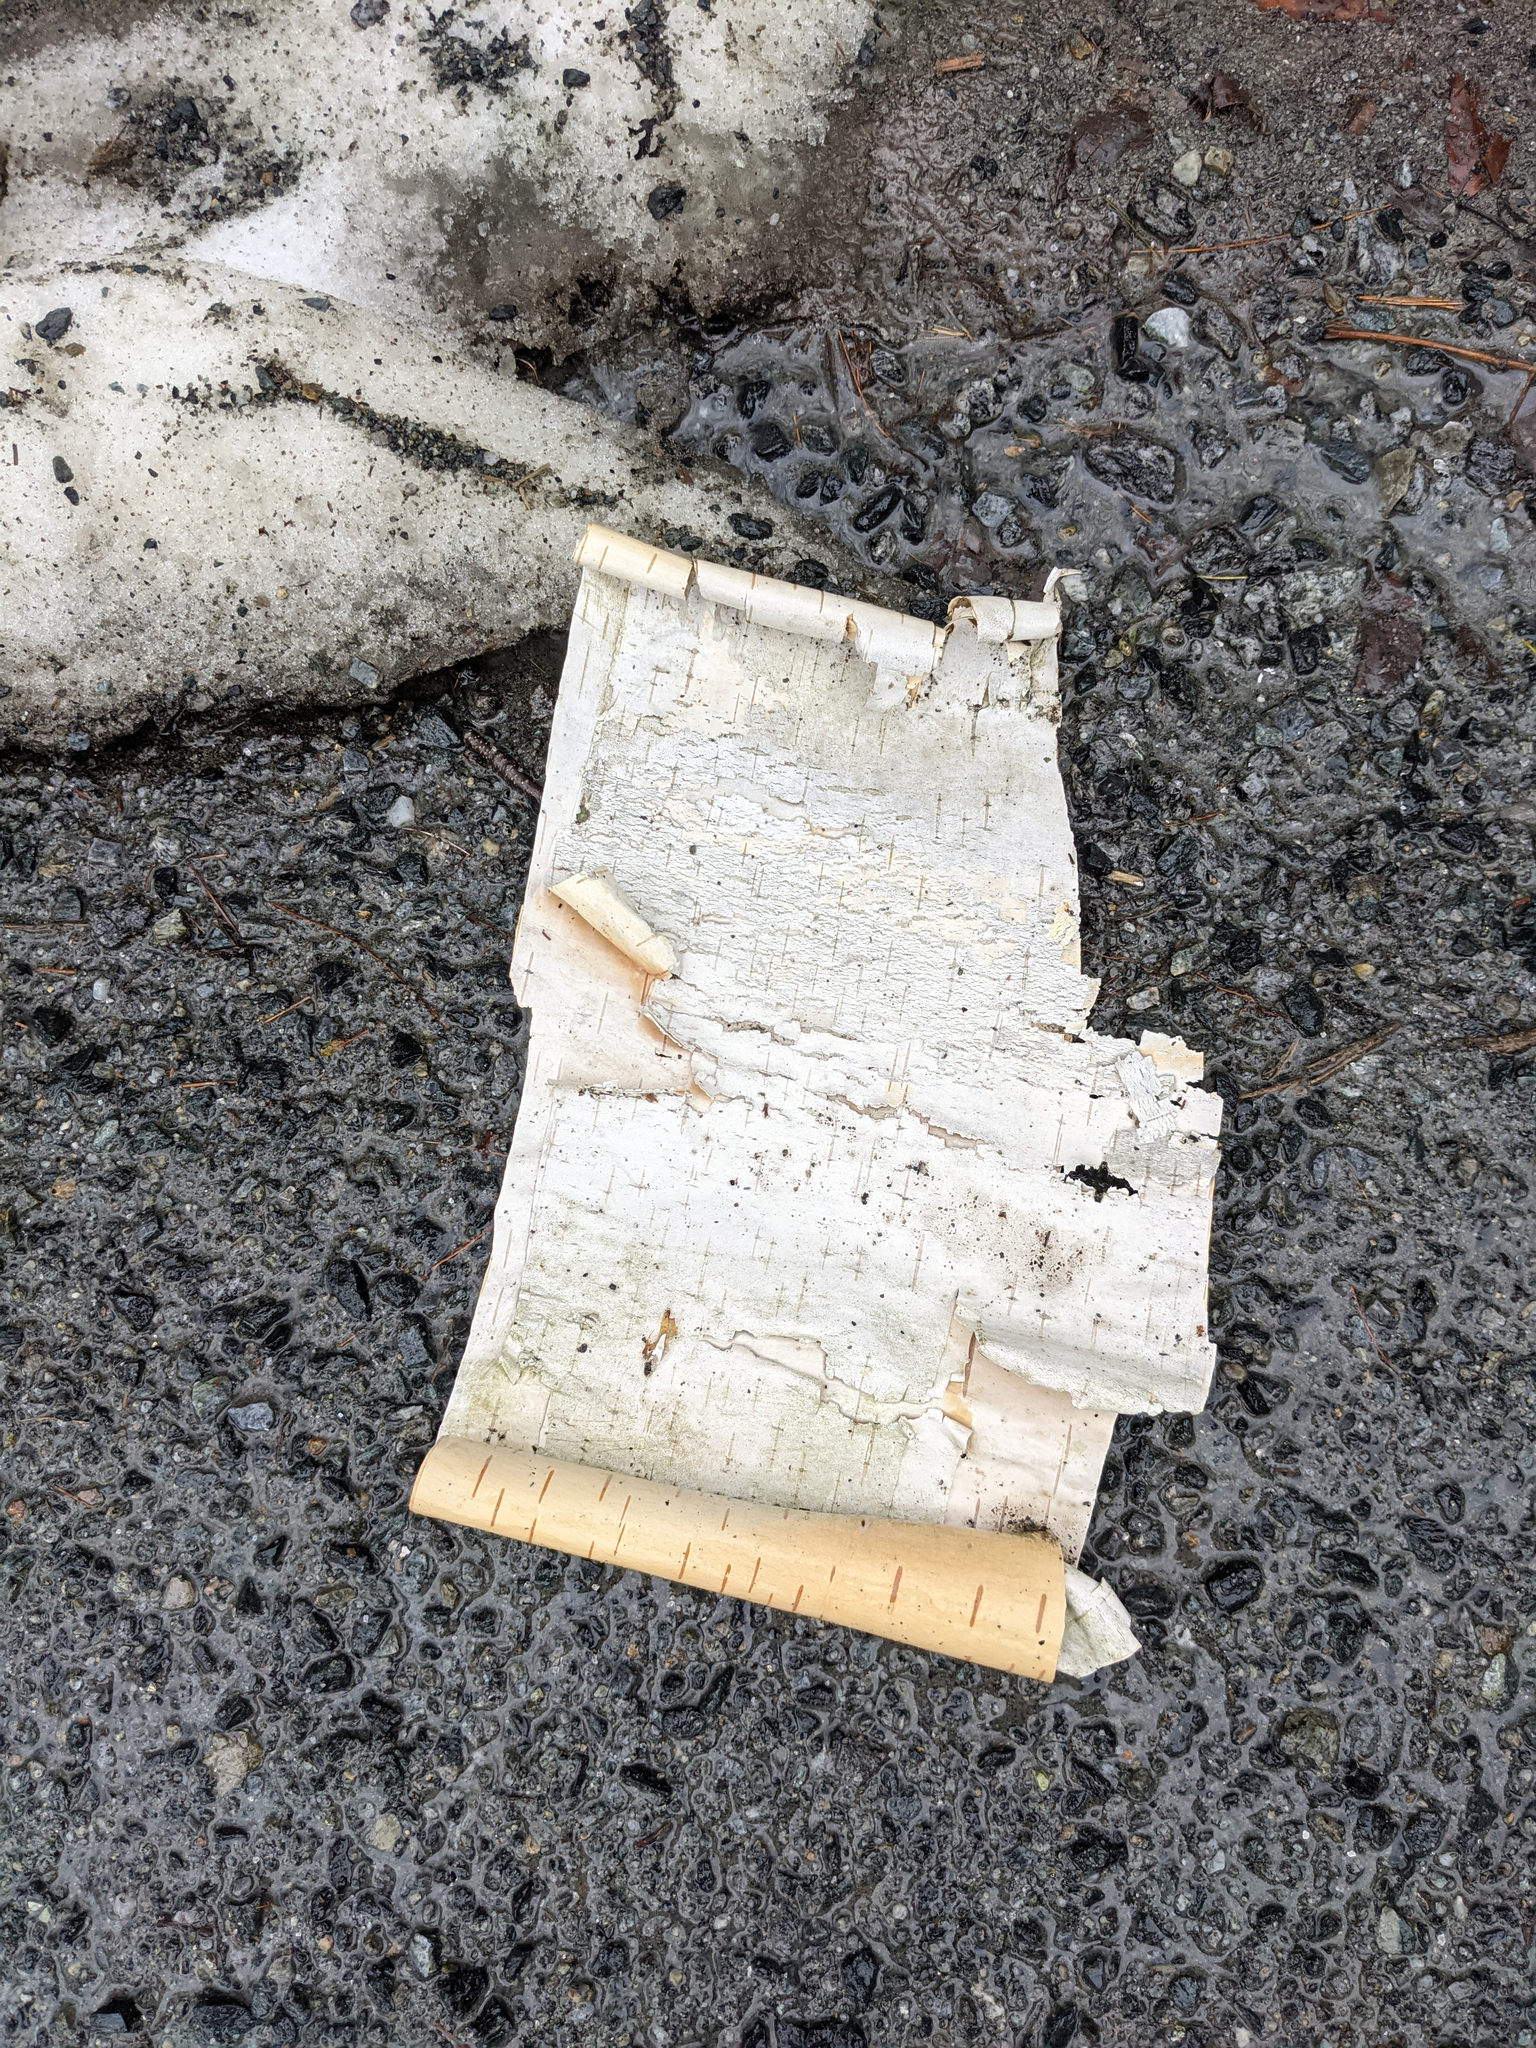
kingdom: Plantae
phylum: Tracheophyta
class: Magnoliopsida
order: Fagales
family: Betulaceae
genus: Betula
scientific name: Betula papyrifera
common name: Paper birch
